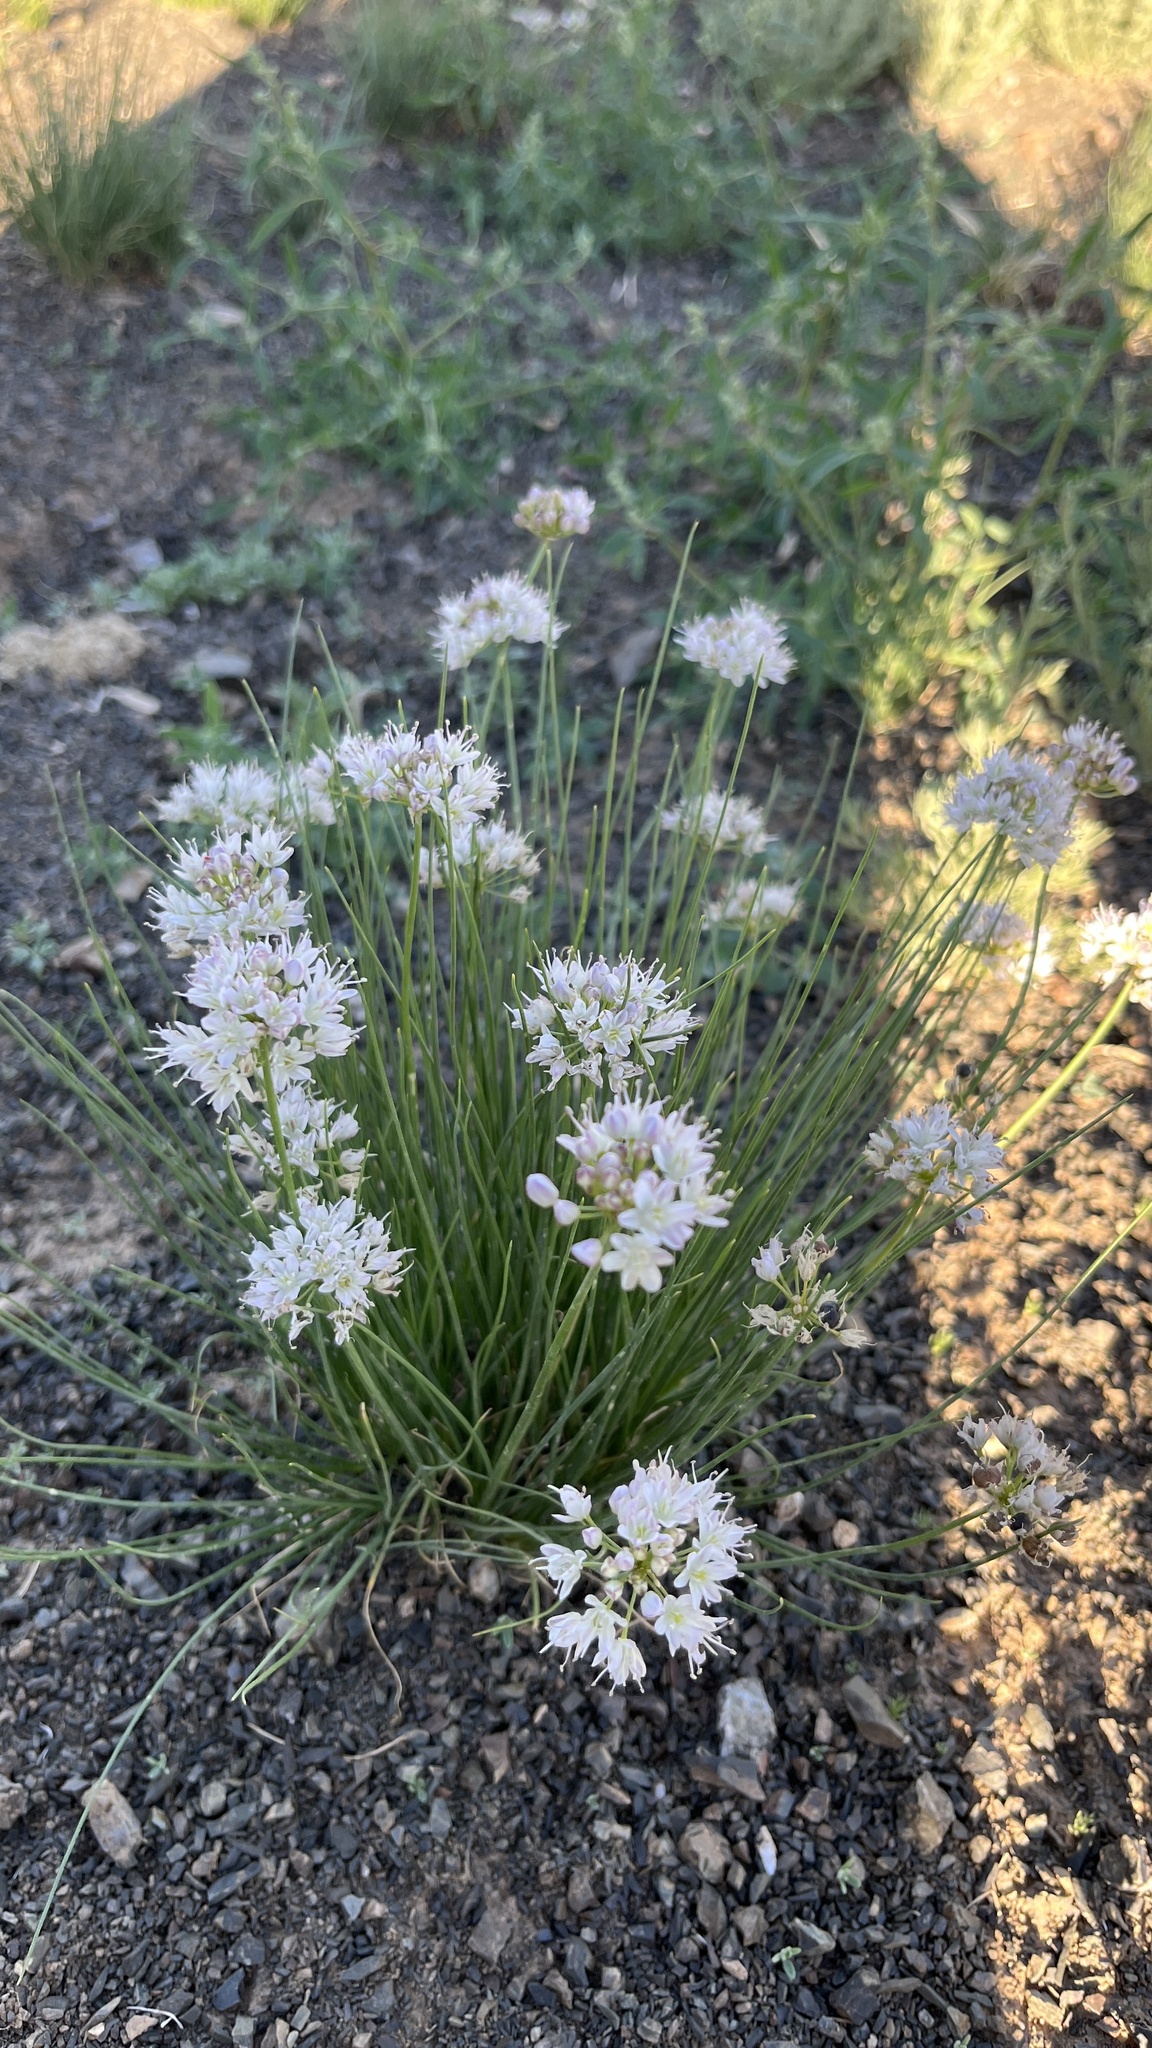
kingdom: Plantae
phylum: Tracheophyta
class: Liliopsida
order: Asparagales
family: Amaryllidaceae
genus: Allium
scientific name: Allium polyrhizum
